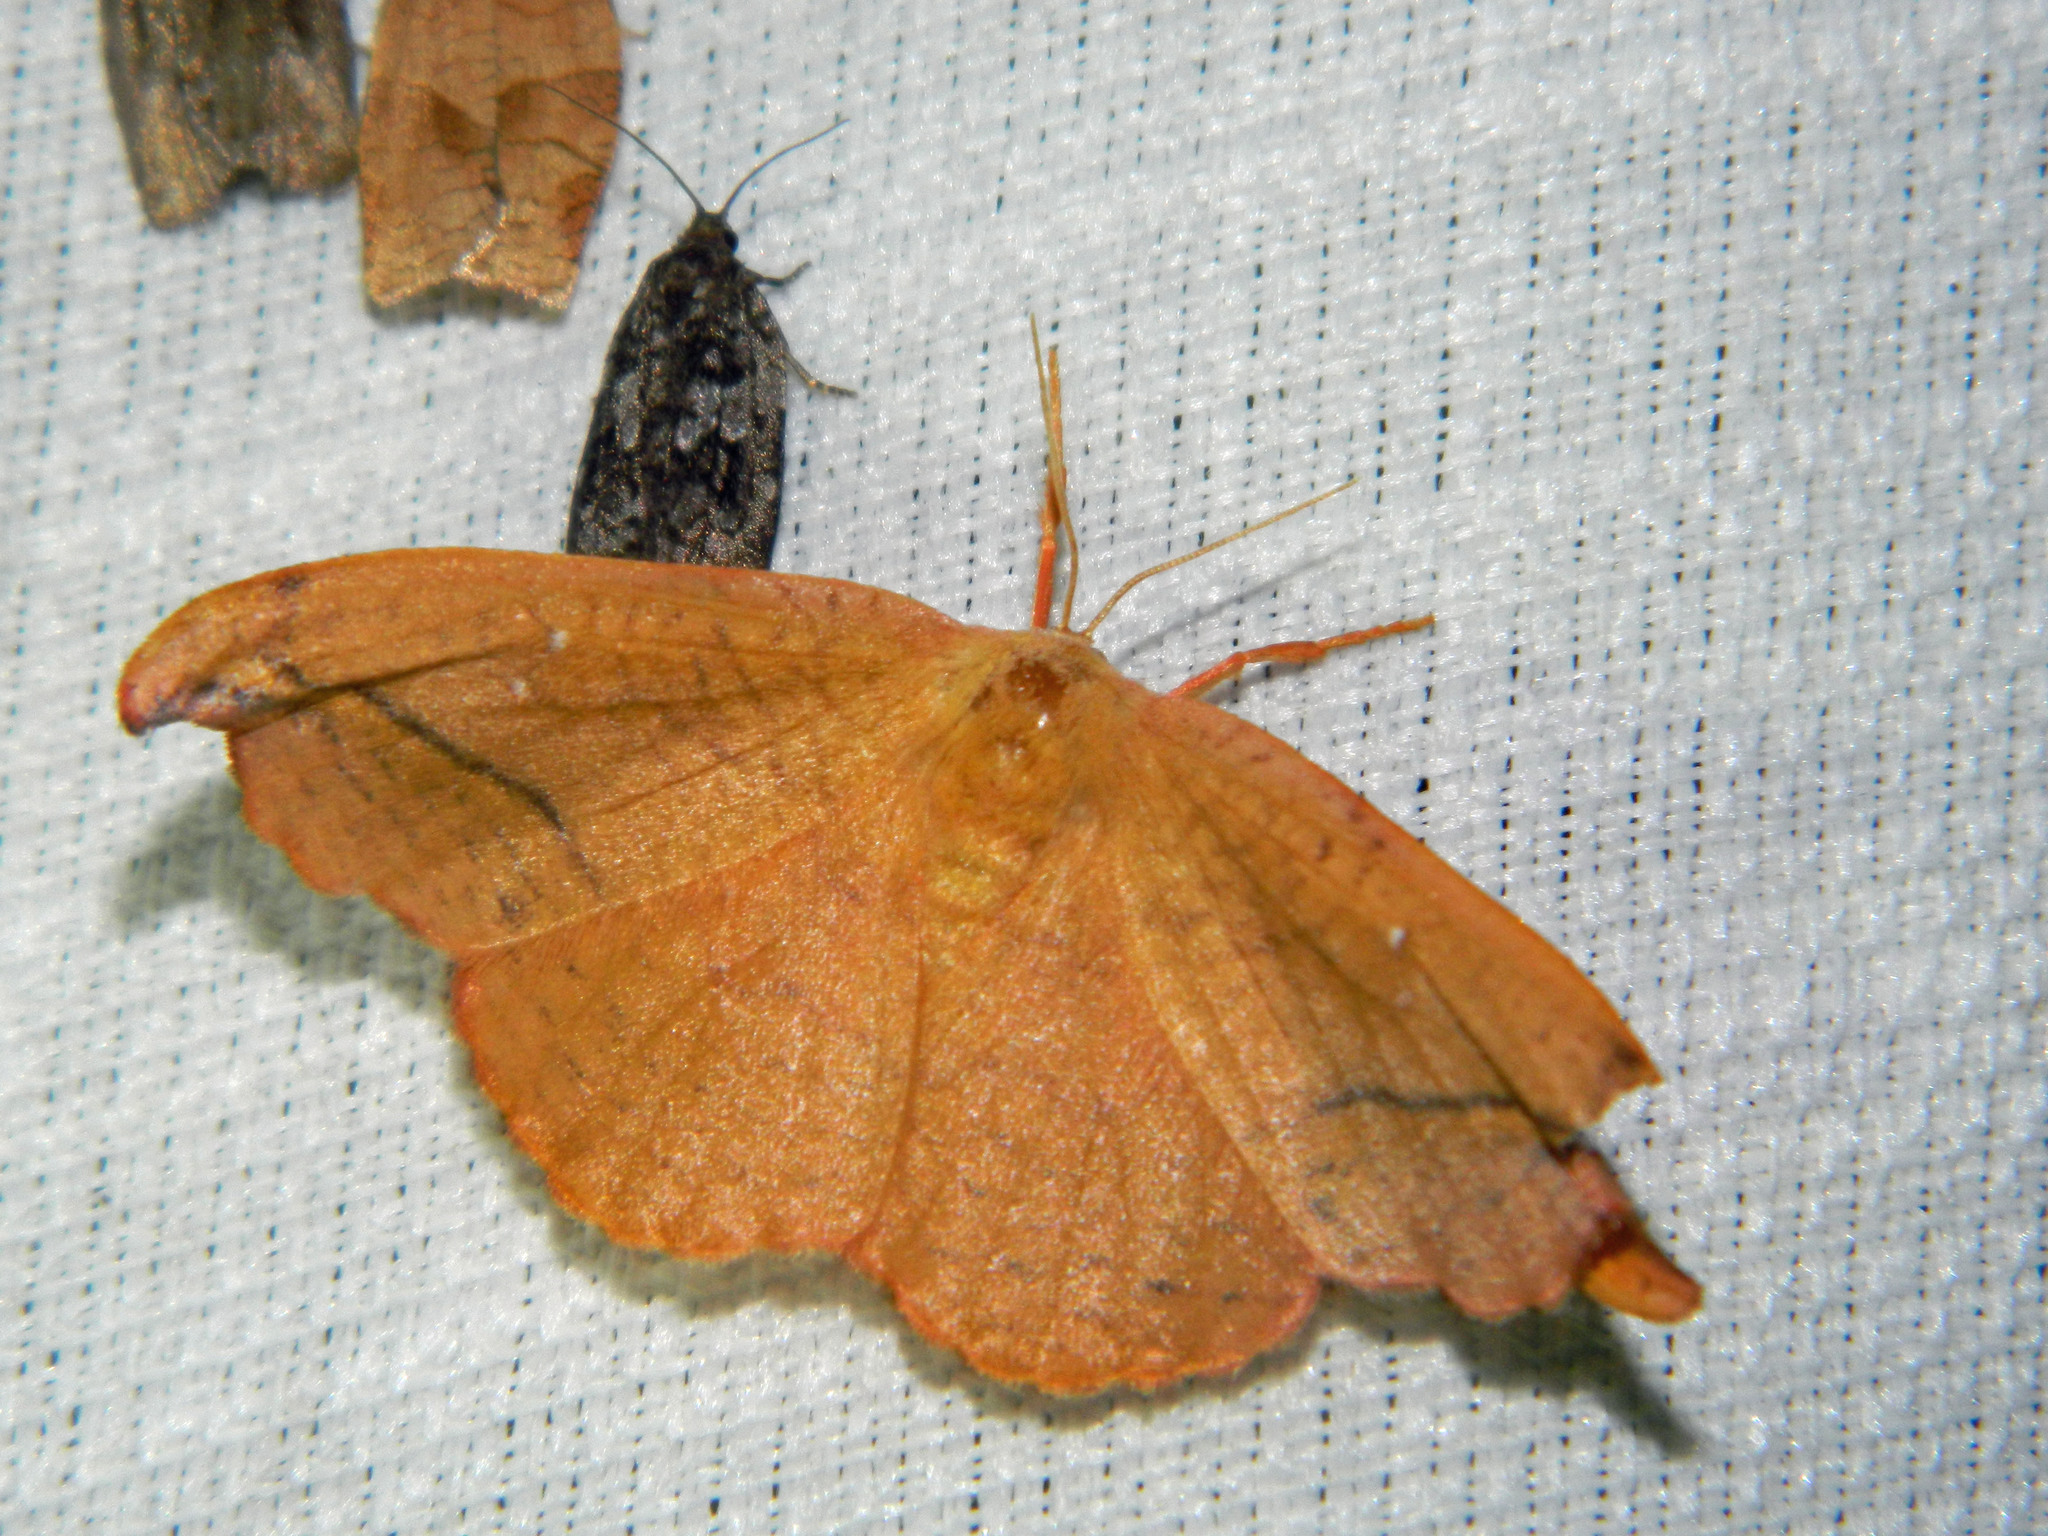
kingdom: Animalia
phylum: Arthropoda
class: Insecta
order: Lepidoptera
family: Drepanidae
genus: Oreta
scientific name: Oreta rosea
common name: Rose hooktip
